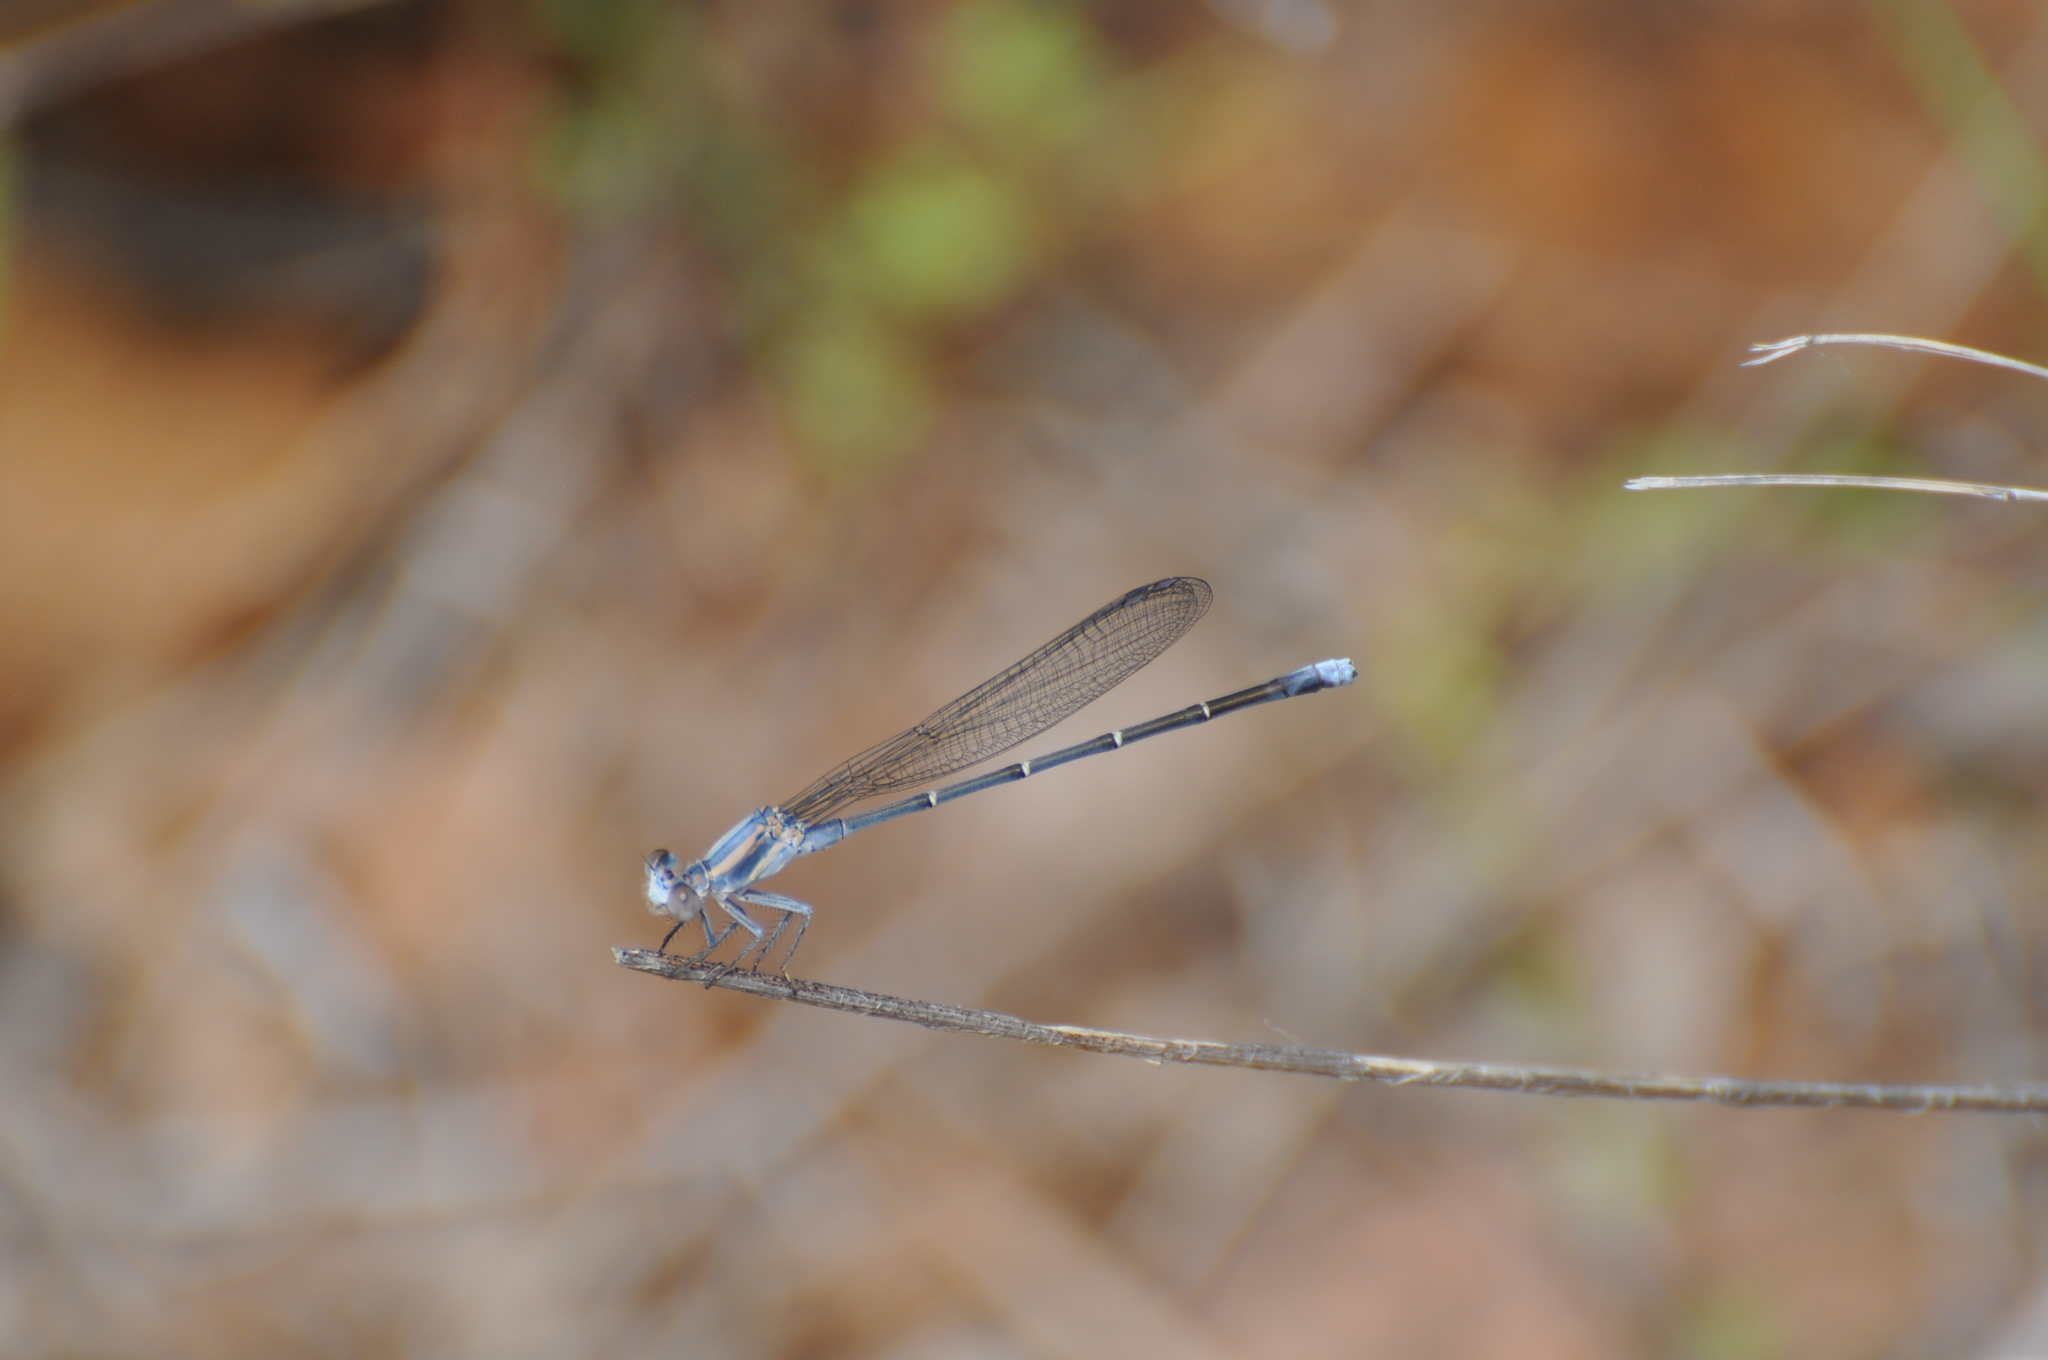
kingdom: Animalia
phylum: Arthropoda
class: Insecta
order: Odonata
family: Coenagrionidae
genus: Argia
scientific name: Argia moesta
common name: Powdered dancer
